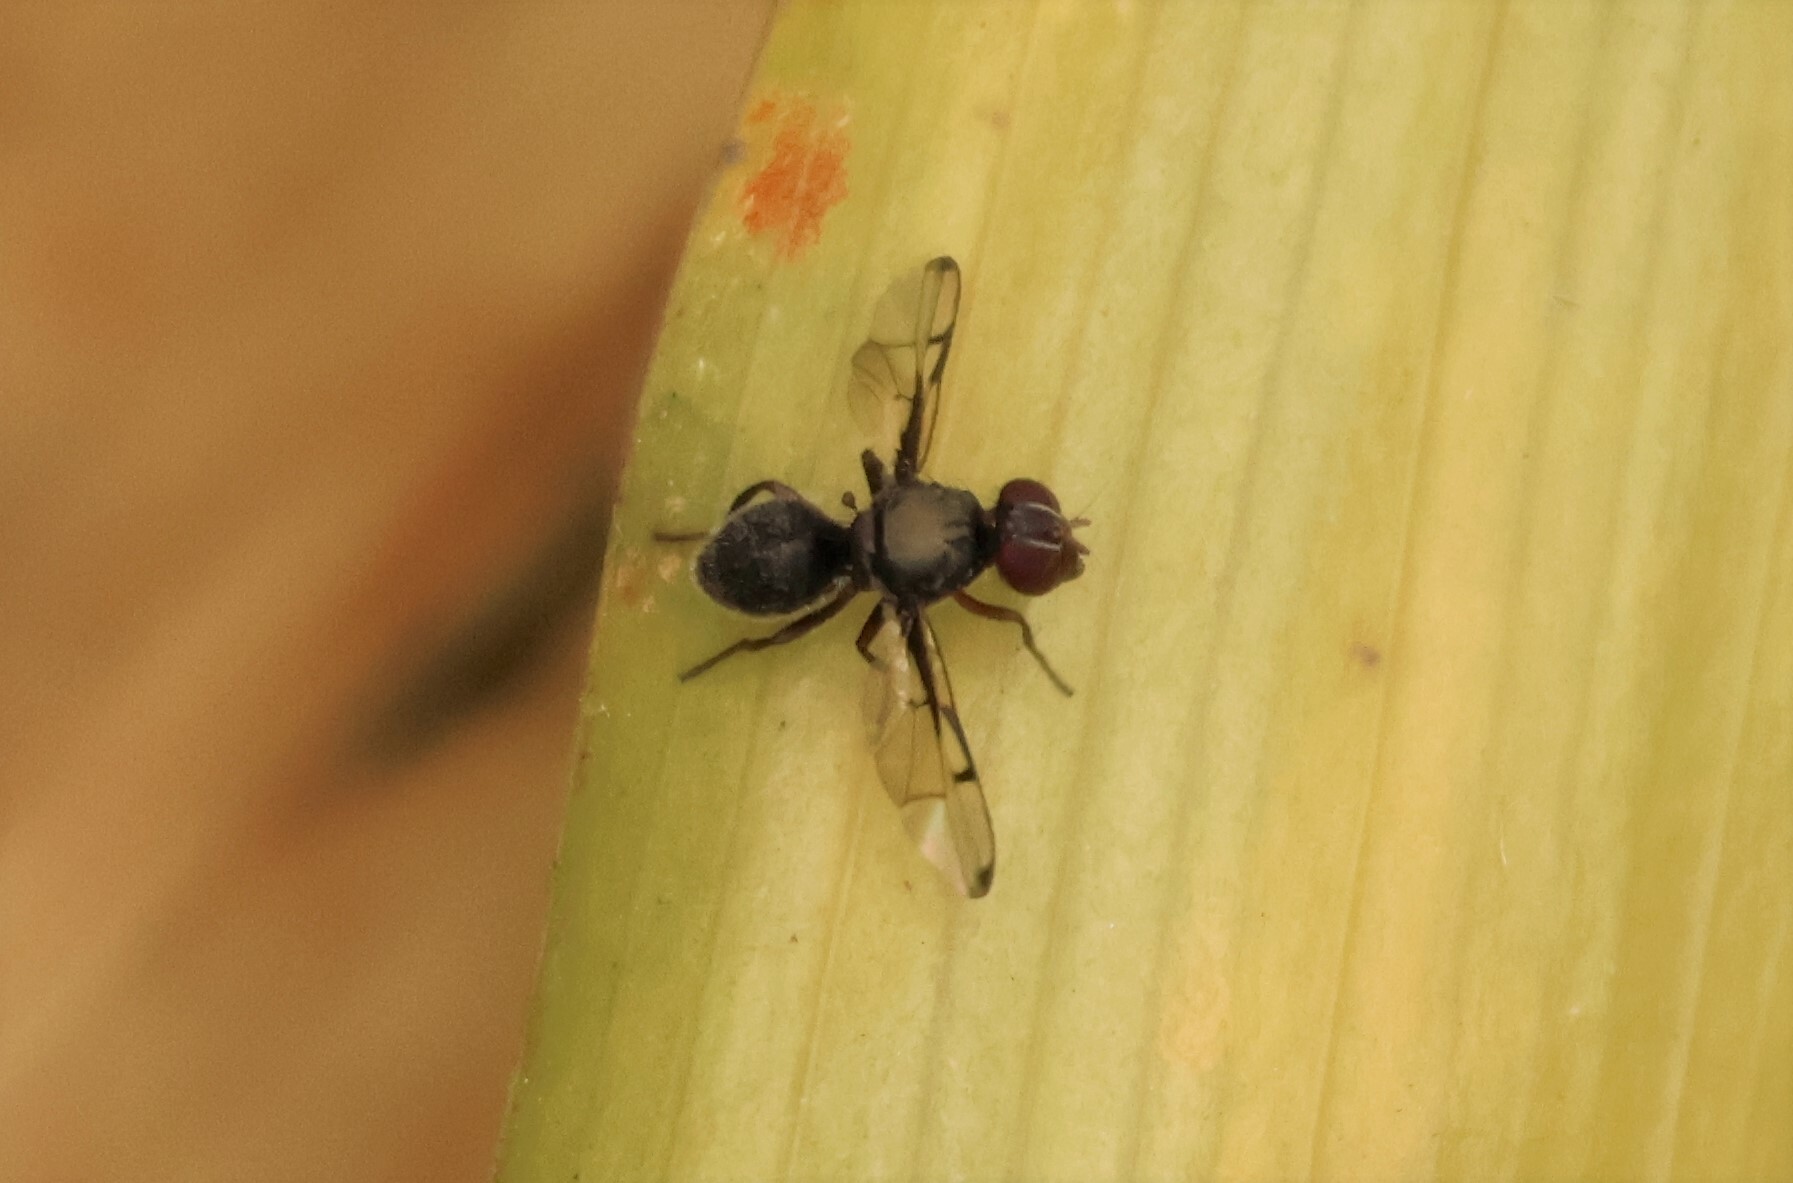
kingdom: Animalia
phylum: Arthropoda
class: Insecta
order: Diptera
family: Platystomatidae
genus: Pogonortalis
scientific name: Pogonortalis doclea
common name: Boatman fly
